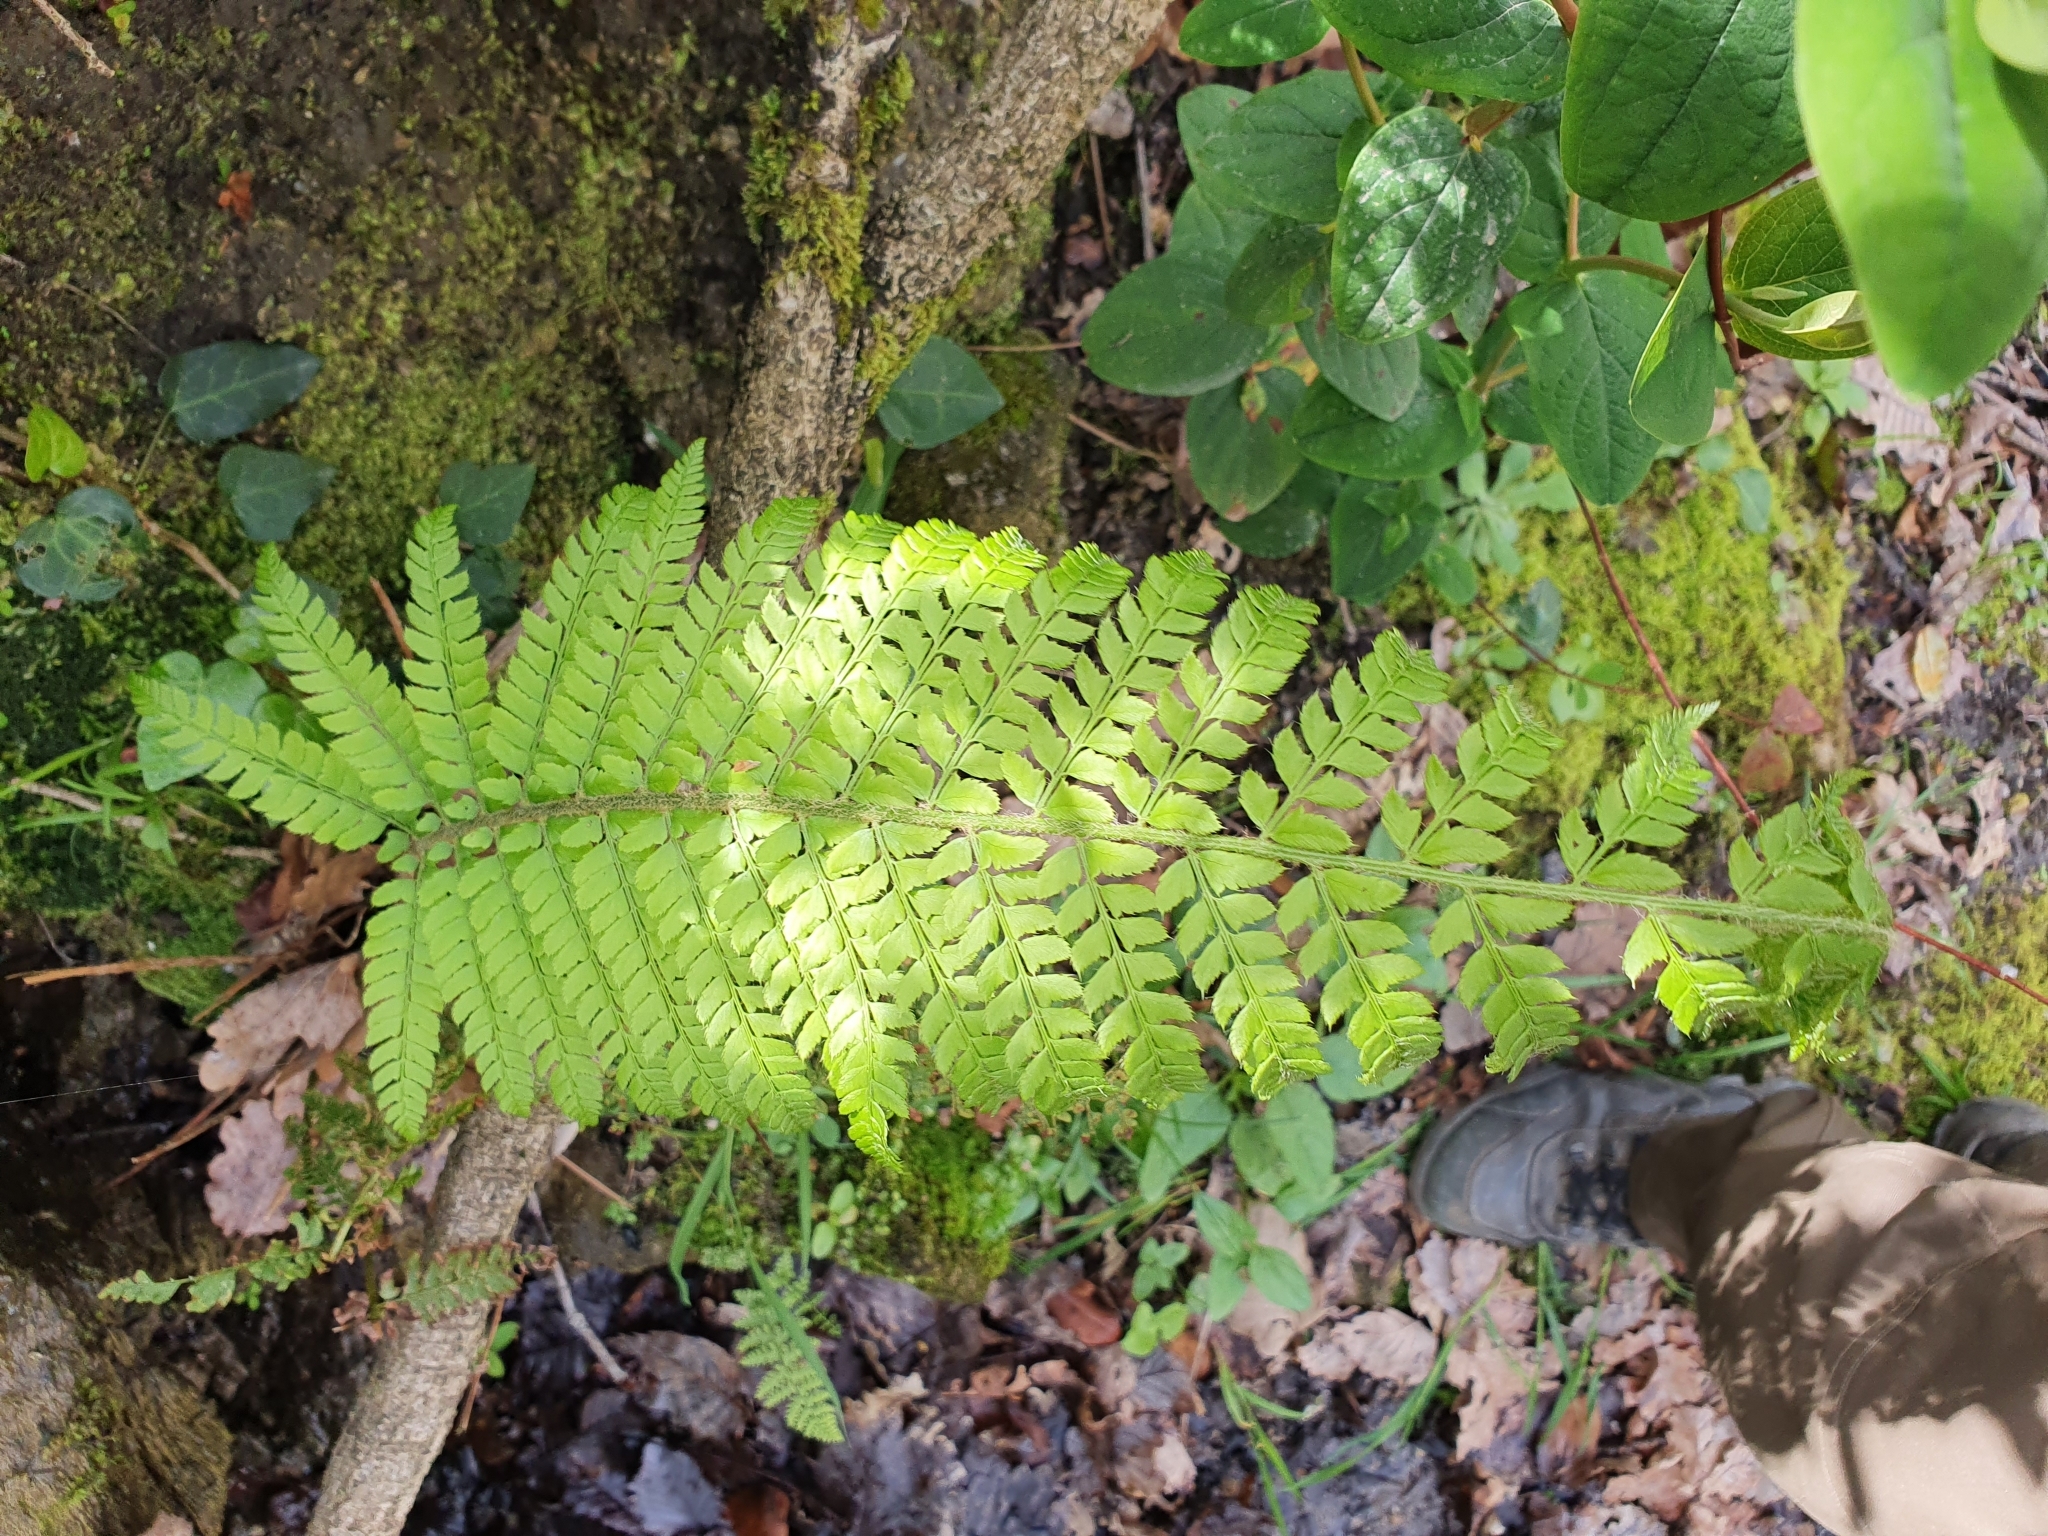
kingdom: Plantae
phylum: Tracheophyta
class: Polypodiopsida
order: Polypodiales
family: Dryopteridaceae
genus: Polystichum
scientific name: Polystichum setiferum
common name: Soft shield-fern
